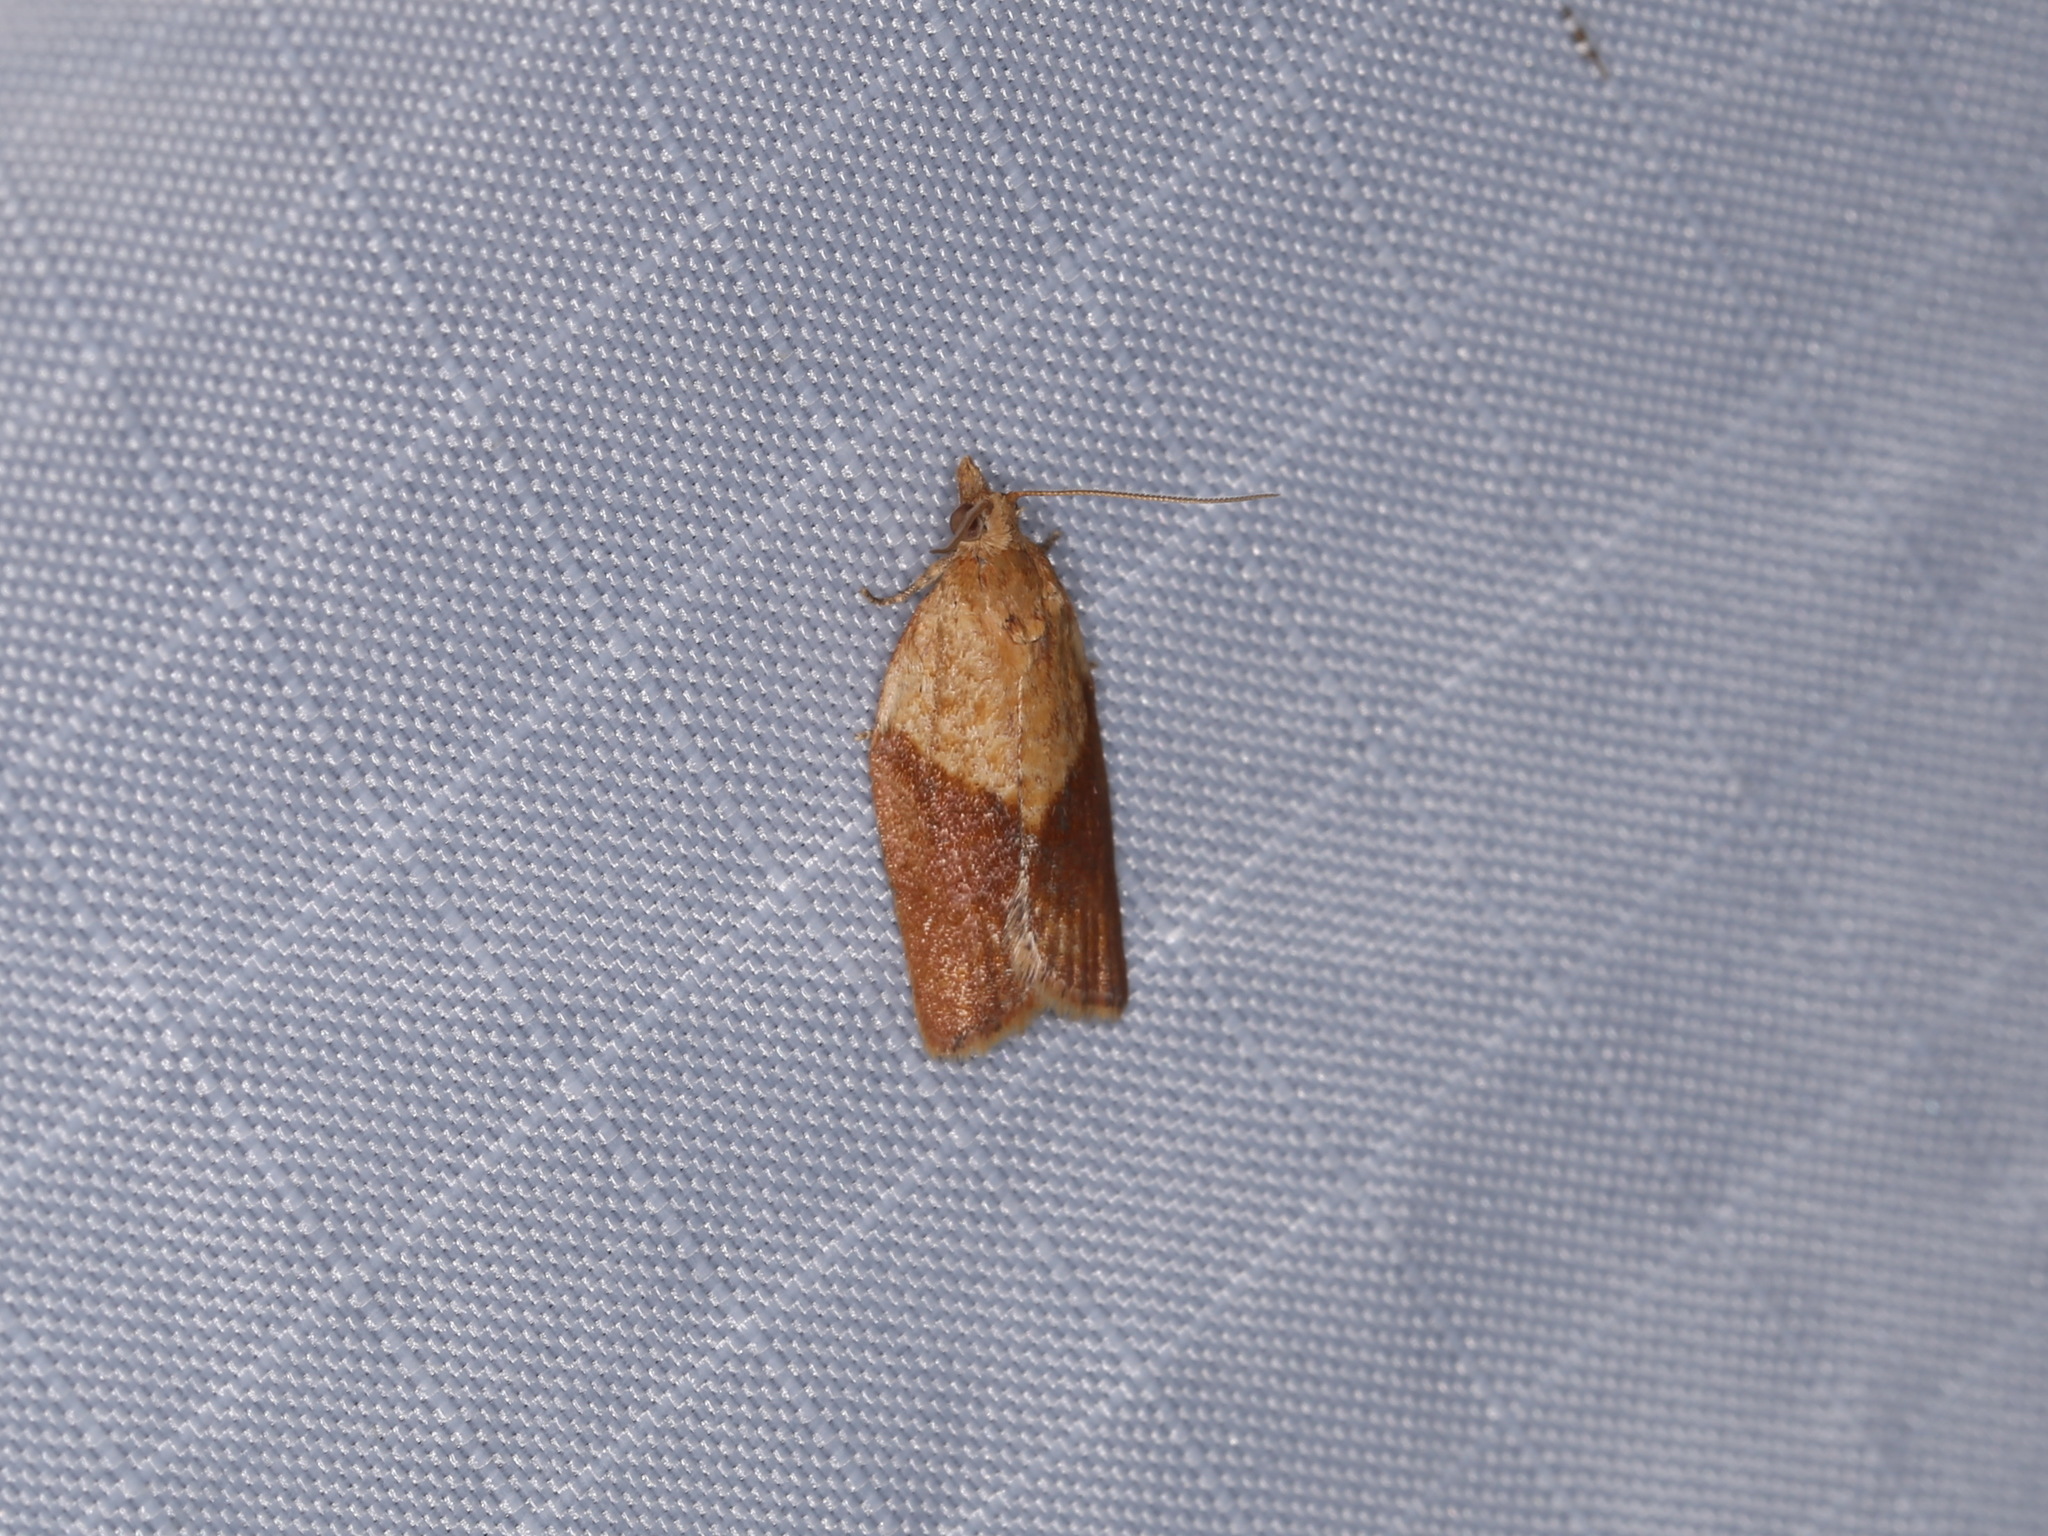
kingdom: Animalia
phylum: Arthropoda
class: Insecta
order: Lepidoptera
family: Tortricidae
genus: Epiphyas
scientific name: Epiphyas postvittana
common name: Light brown apple moth
